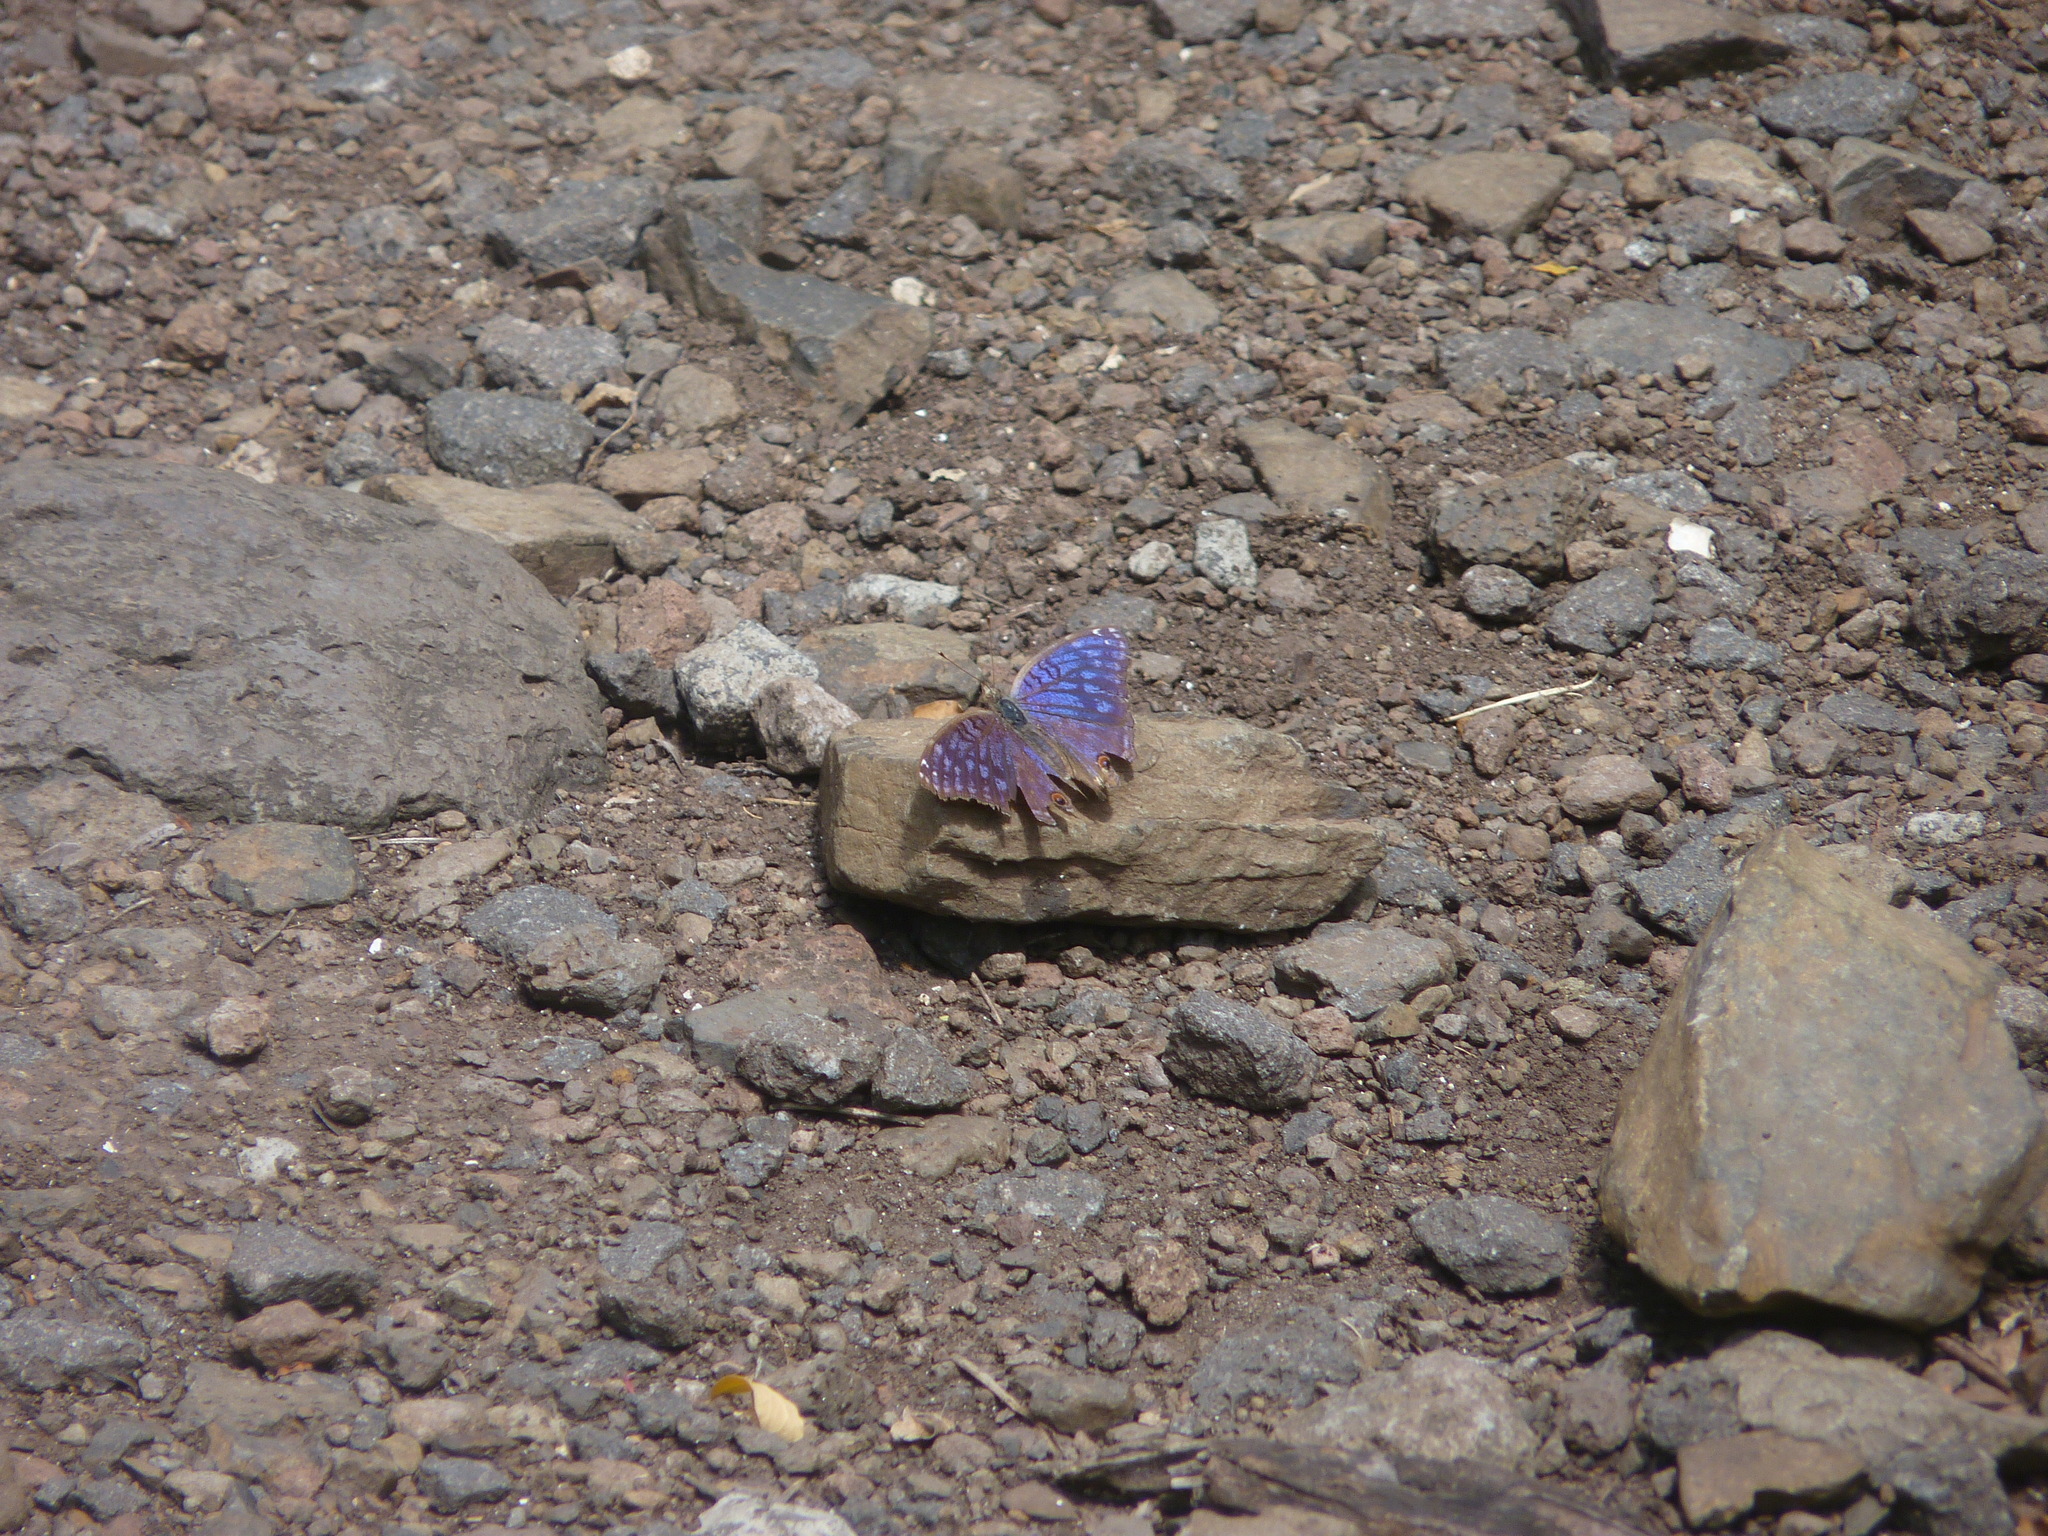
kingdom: Animalia
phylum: Arthropoda
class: Insecta
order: Lepidoptera
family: Nymphalidae
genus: Junonia
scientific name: Junonia rhadama
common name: Royal blue pansy
